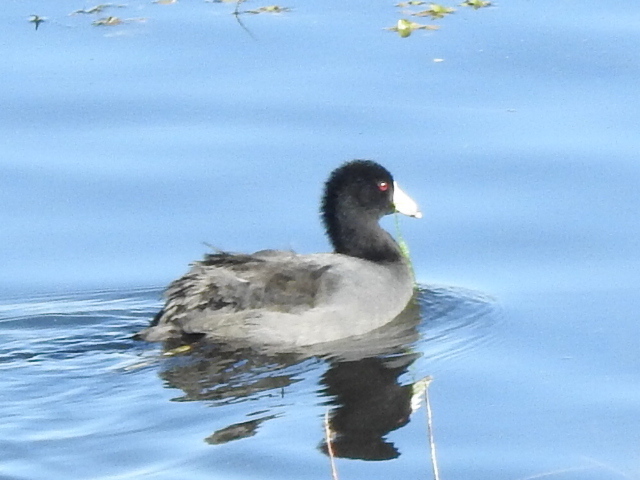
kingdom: Animalia
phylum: Chordata
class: Aves
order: Gruiformes
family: Rallidae
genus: Fulica
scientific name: Fulica americana
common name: American coot
